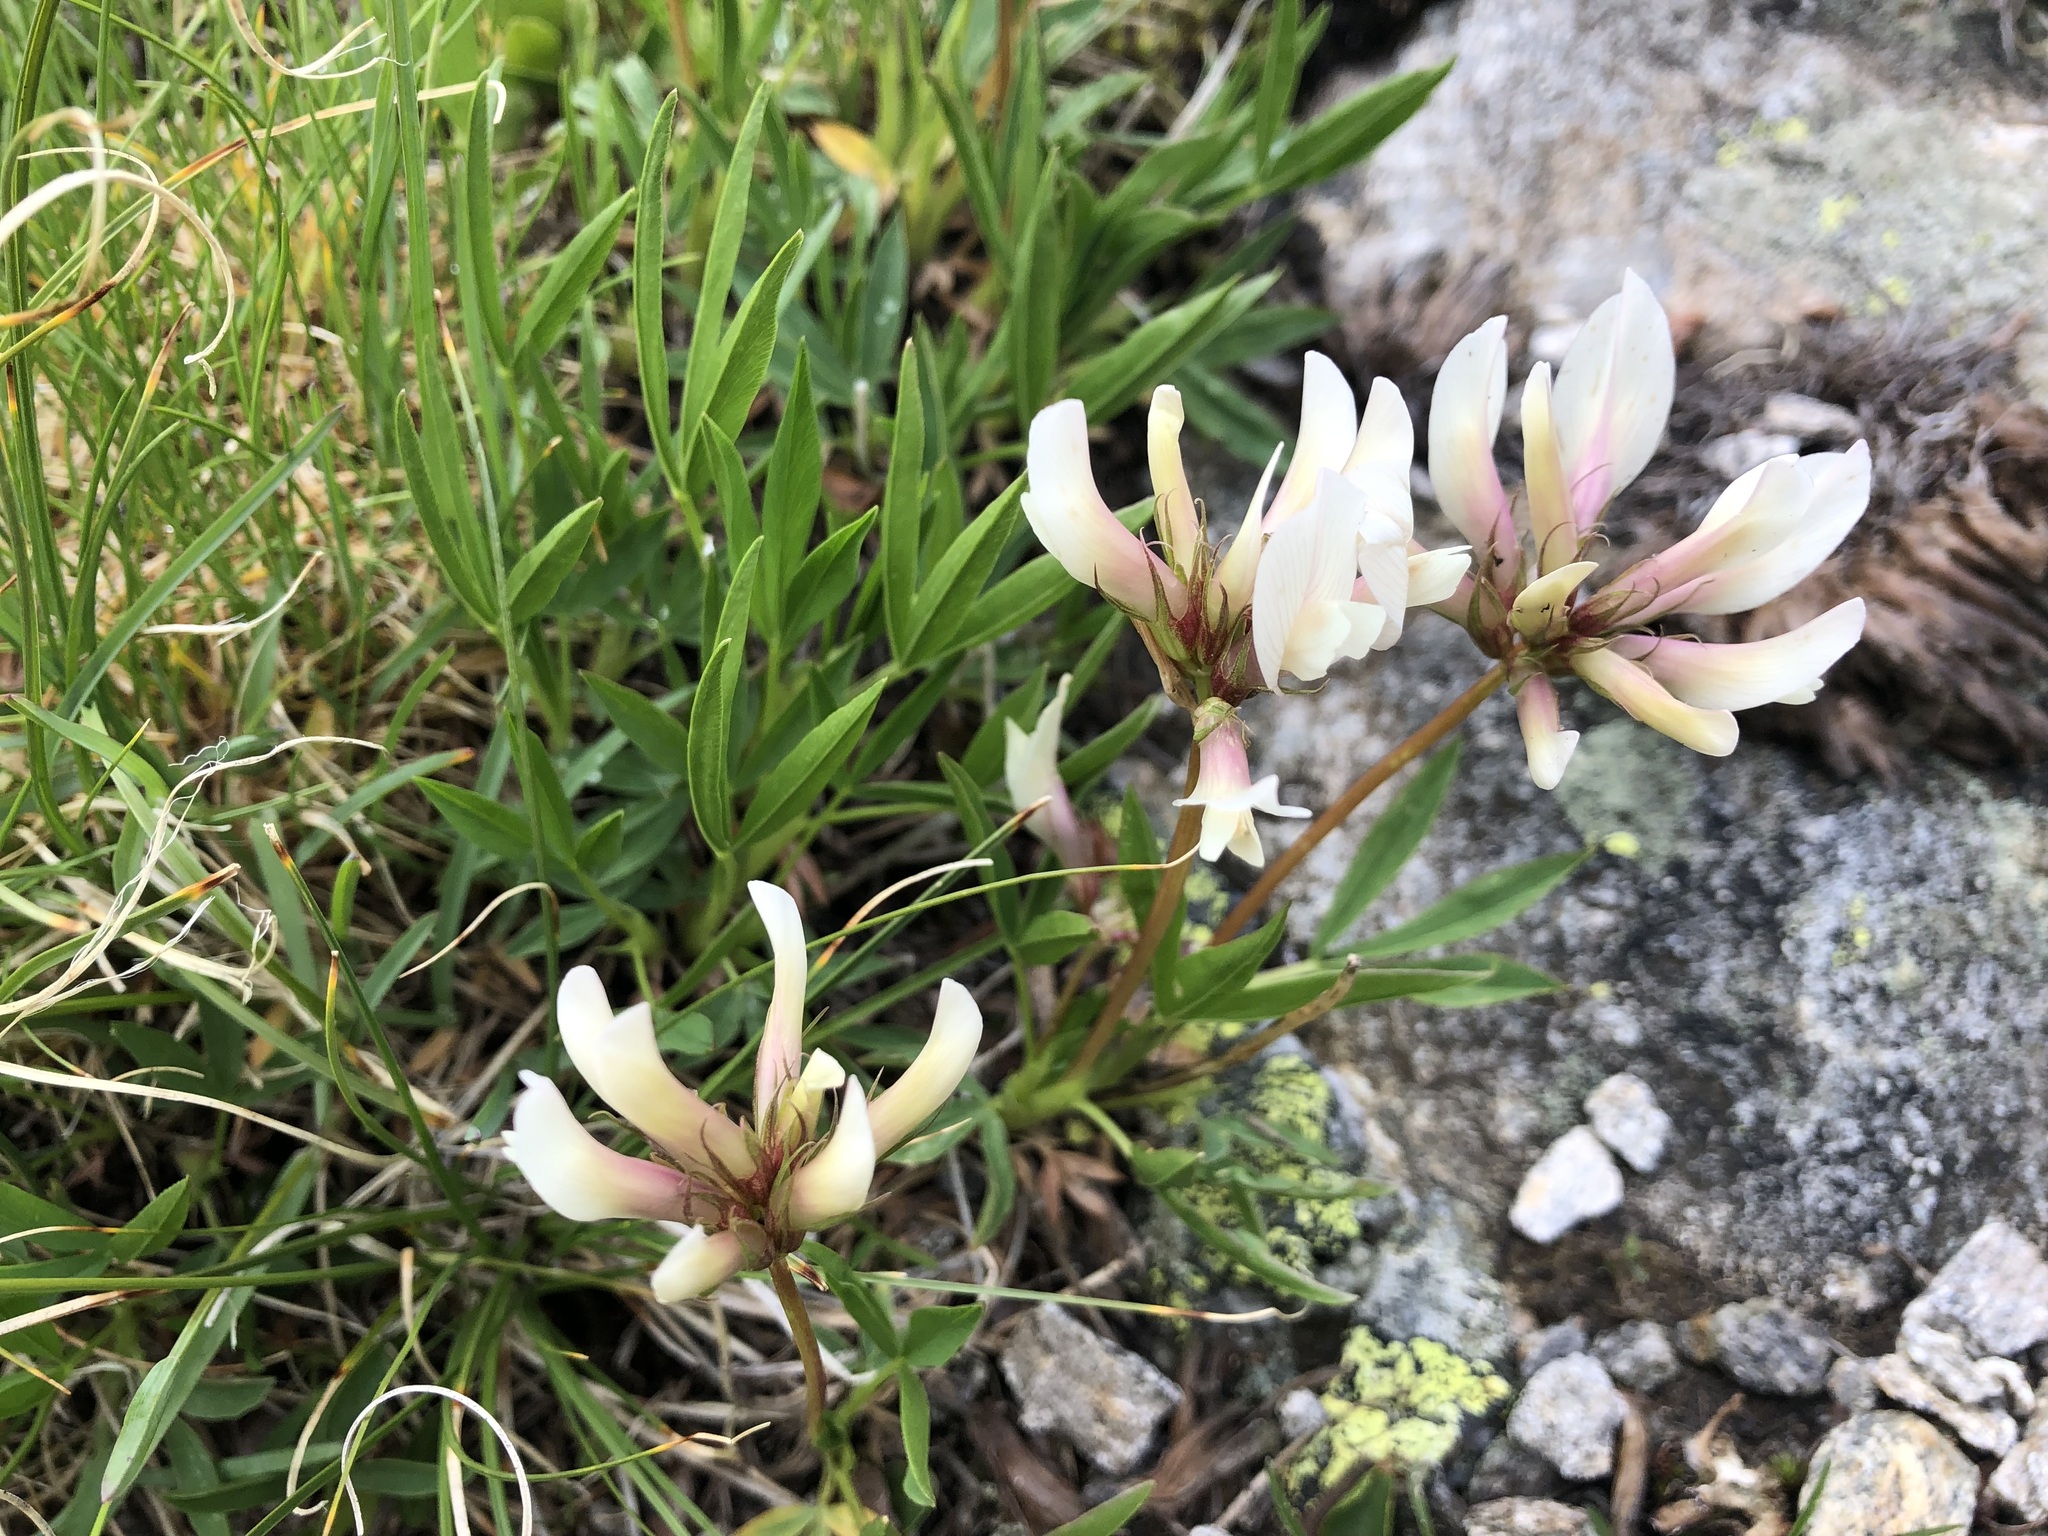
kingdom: Plantae
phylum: Tracheophyta
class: Magnoliopsida
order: Fabales
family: Fabaceae
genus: Trifolium
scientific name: Trifolium alpinum
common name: Alpine clover
